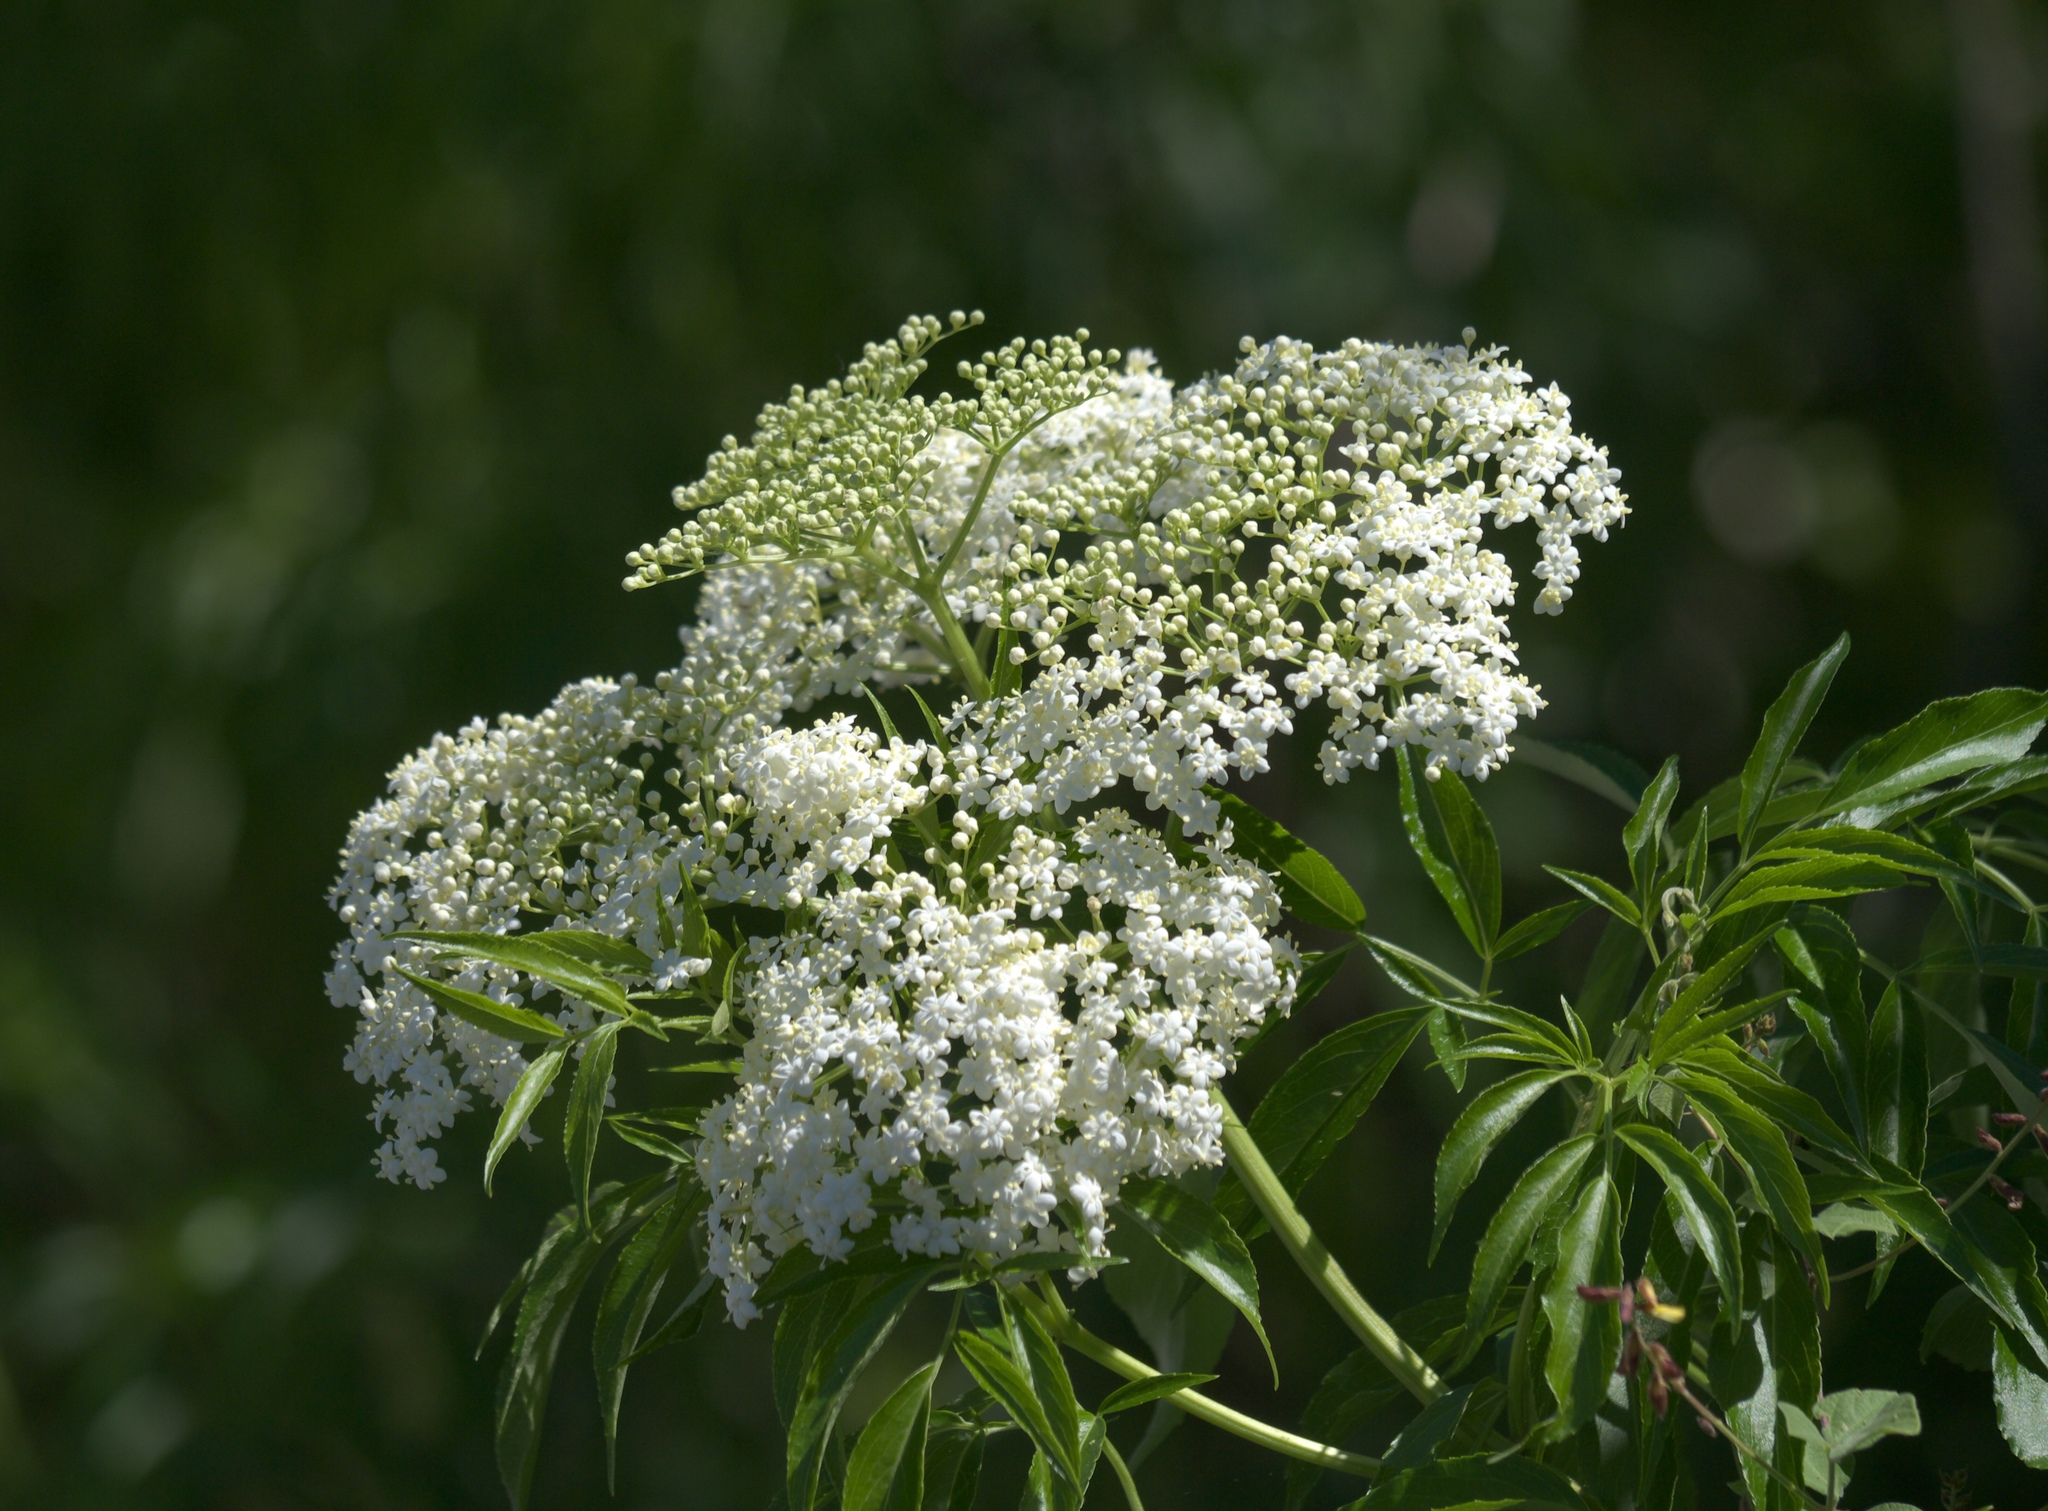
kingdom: Plantae
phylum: Tracheophyta
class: Magnoliopsida
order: Dipsacales
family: Viburnaceae
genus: Sambucus
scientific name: Sambucus canadensis
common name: American elder
